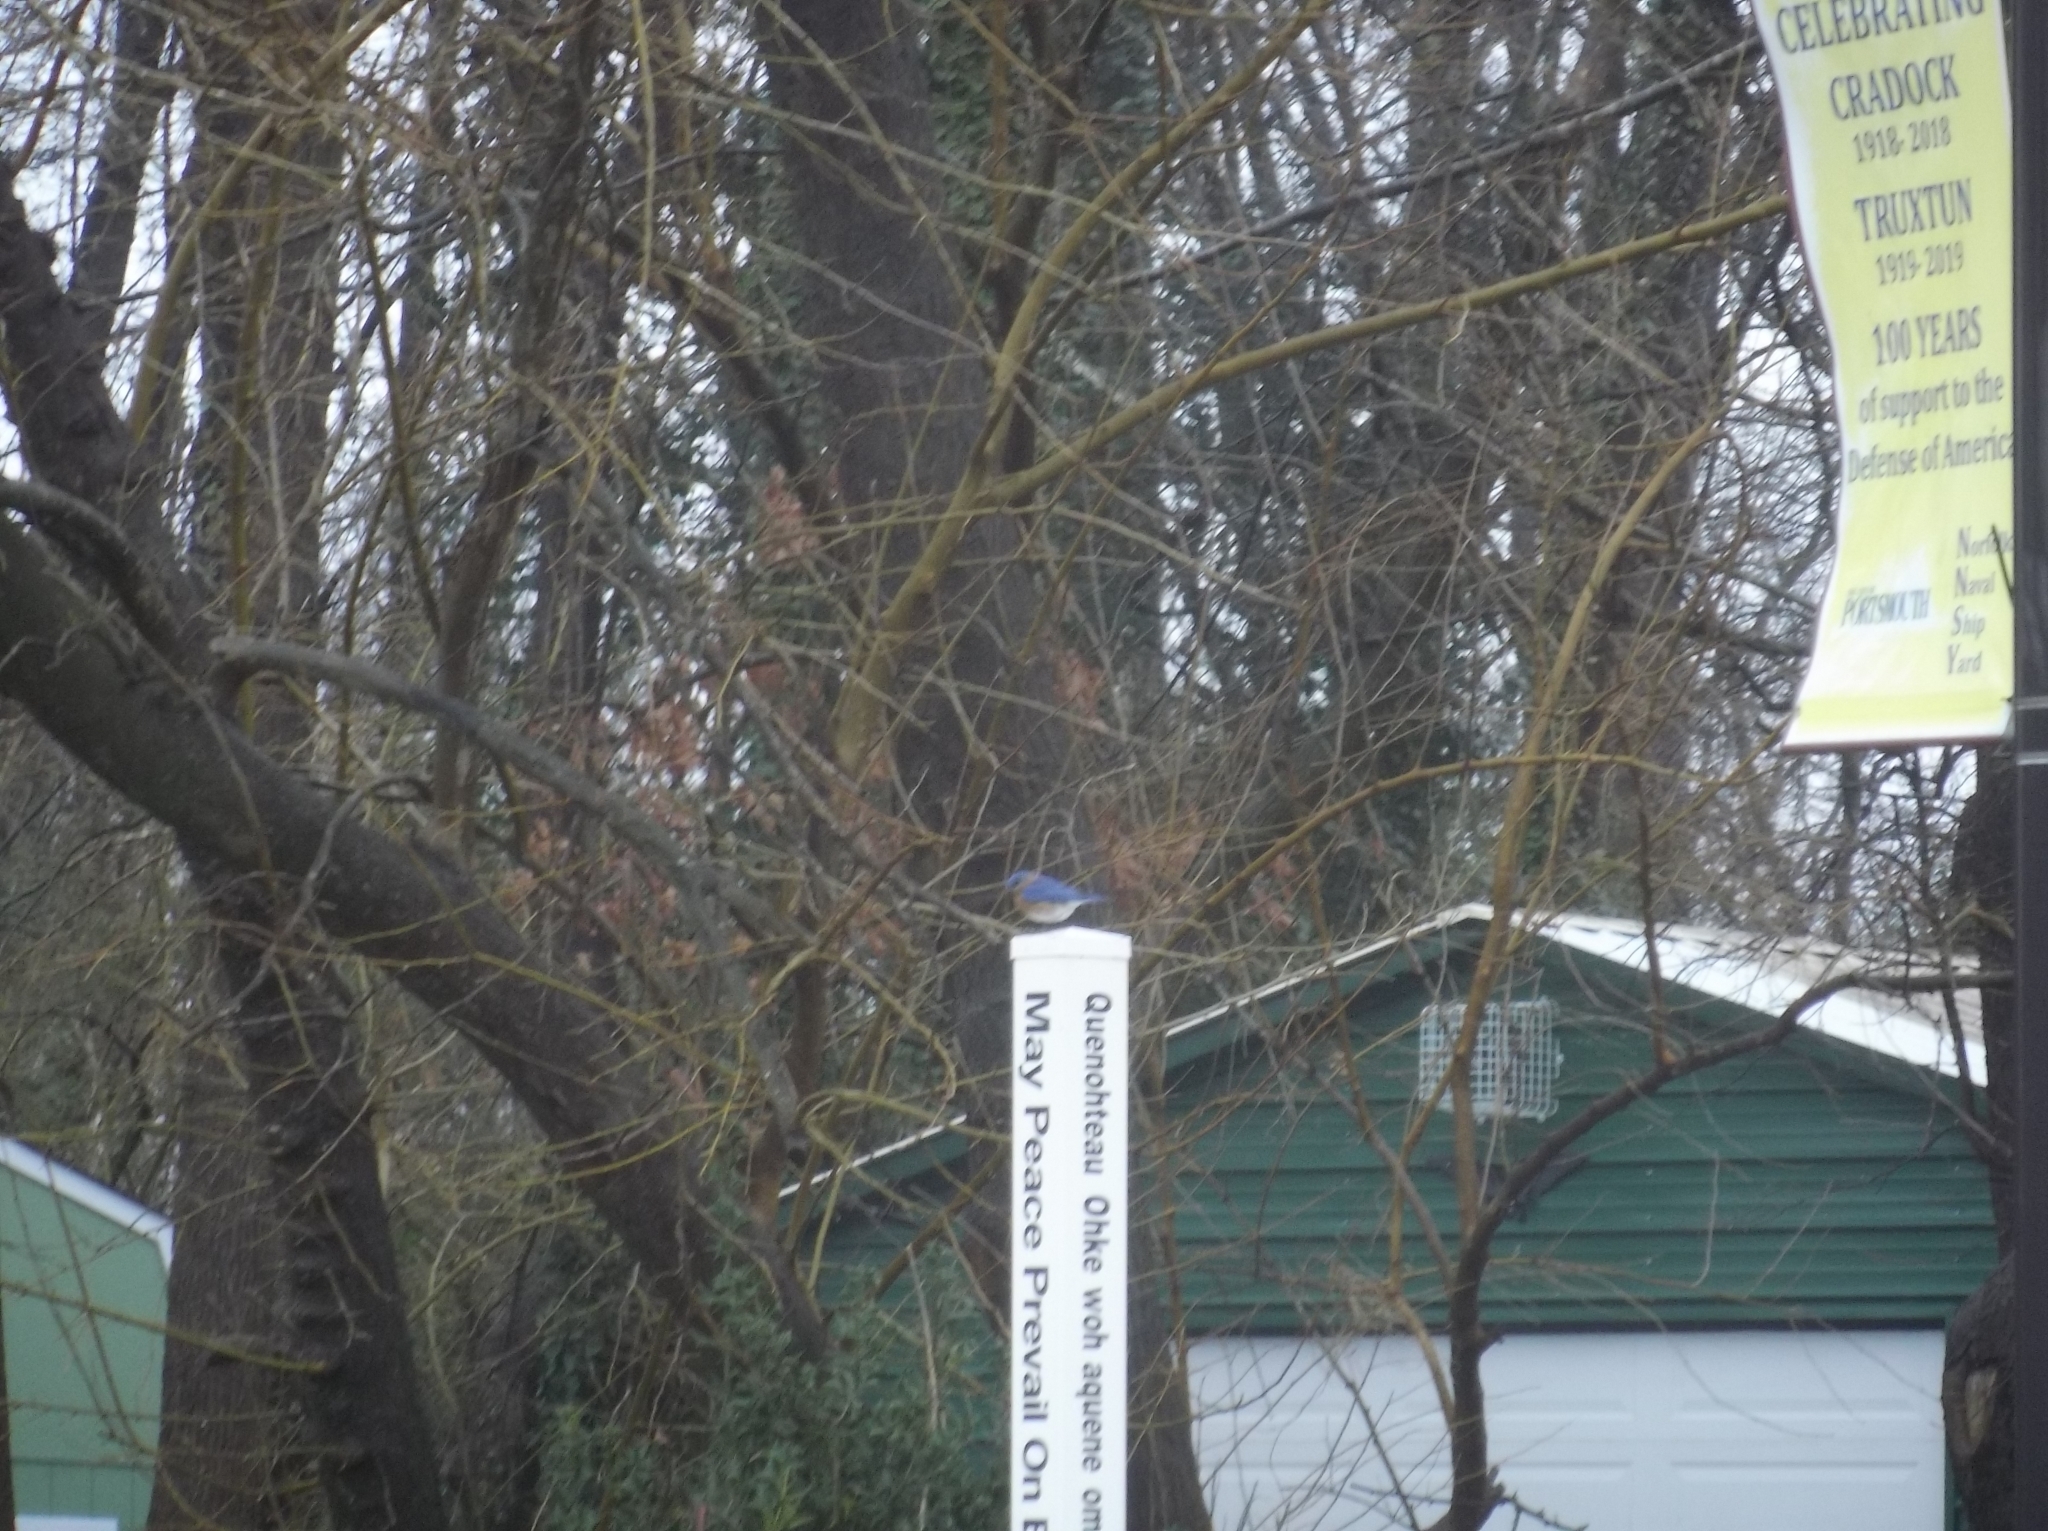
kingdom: Animalia
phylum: Chordata
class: Aves
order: Passeriformes
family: Turdidae
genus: Sialia
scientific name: Sialia sialis
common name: Eastern bluebird
